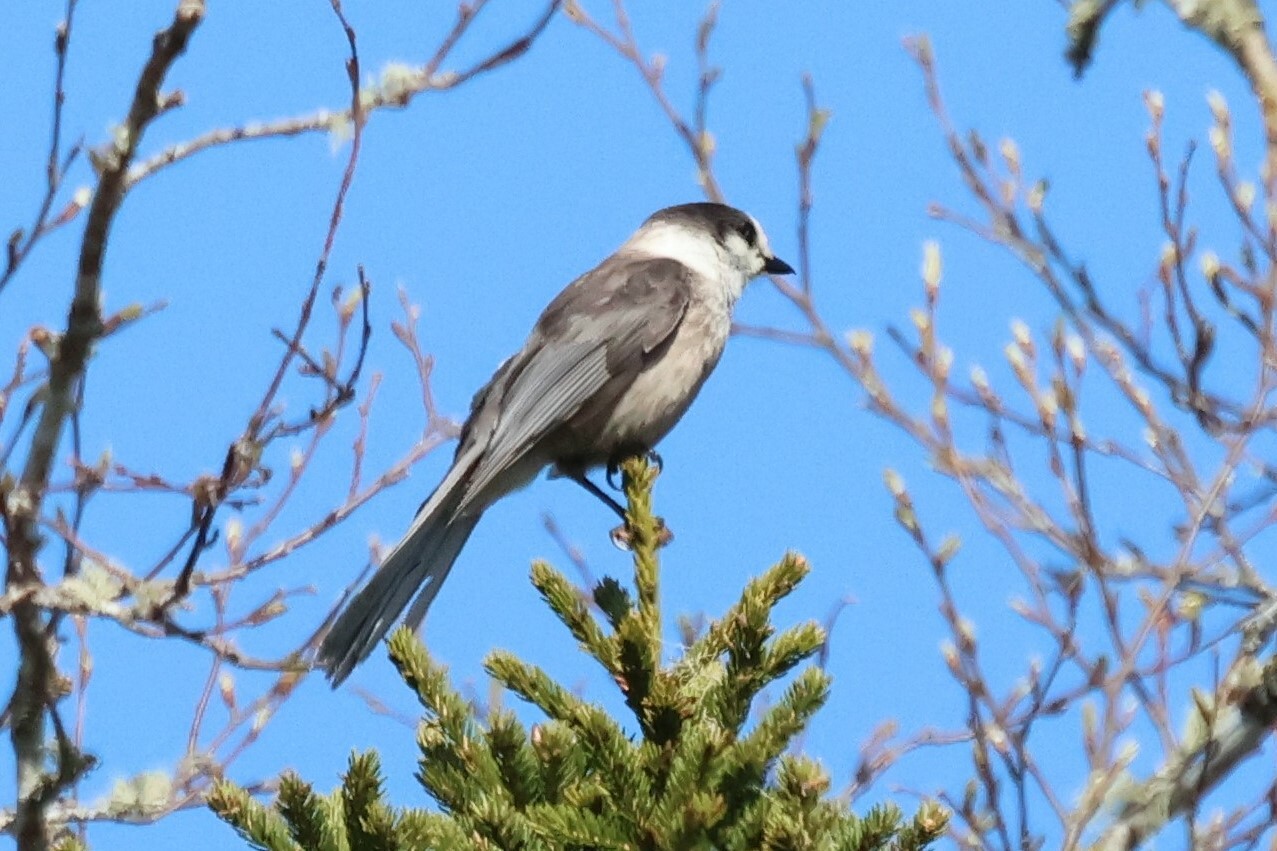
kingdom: Animalia
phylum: Chordata
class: Aves
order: Passeriformes
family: Corvidae
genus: Perisoreus
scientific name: Perisoreus canadensis
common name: Gray jay
